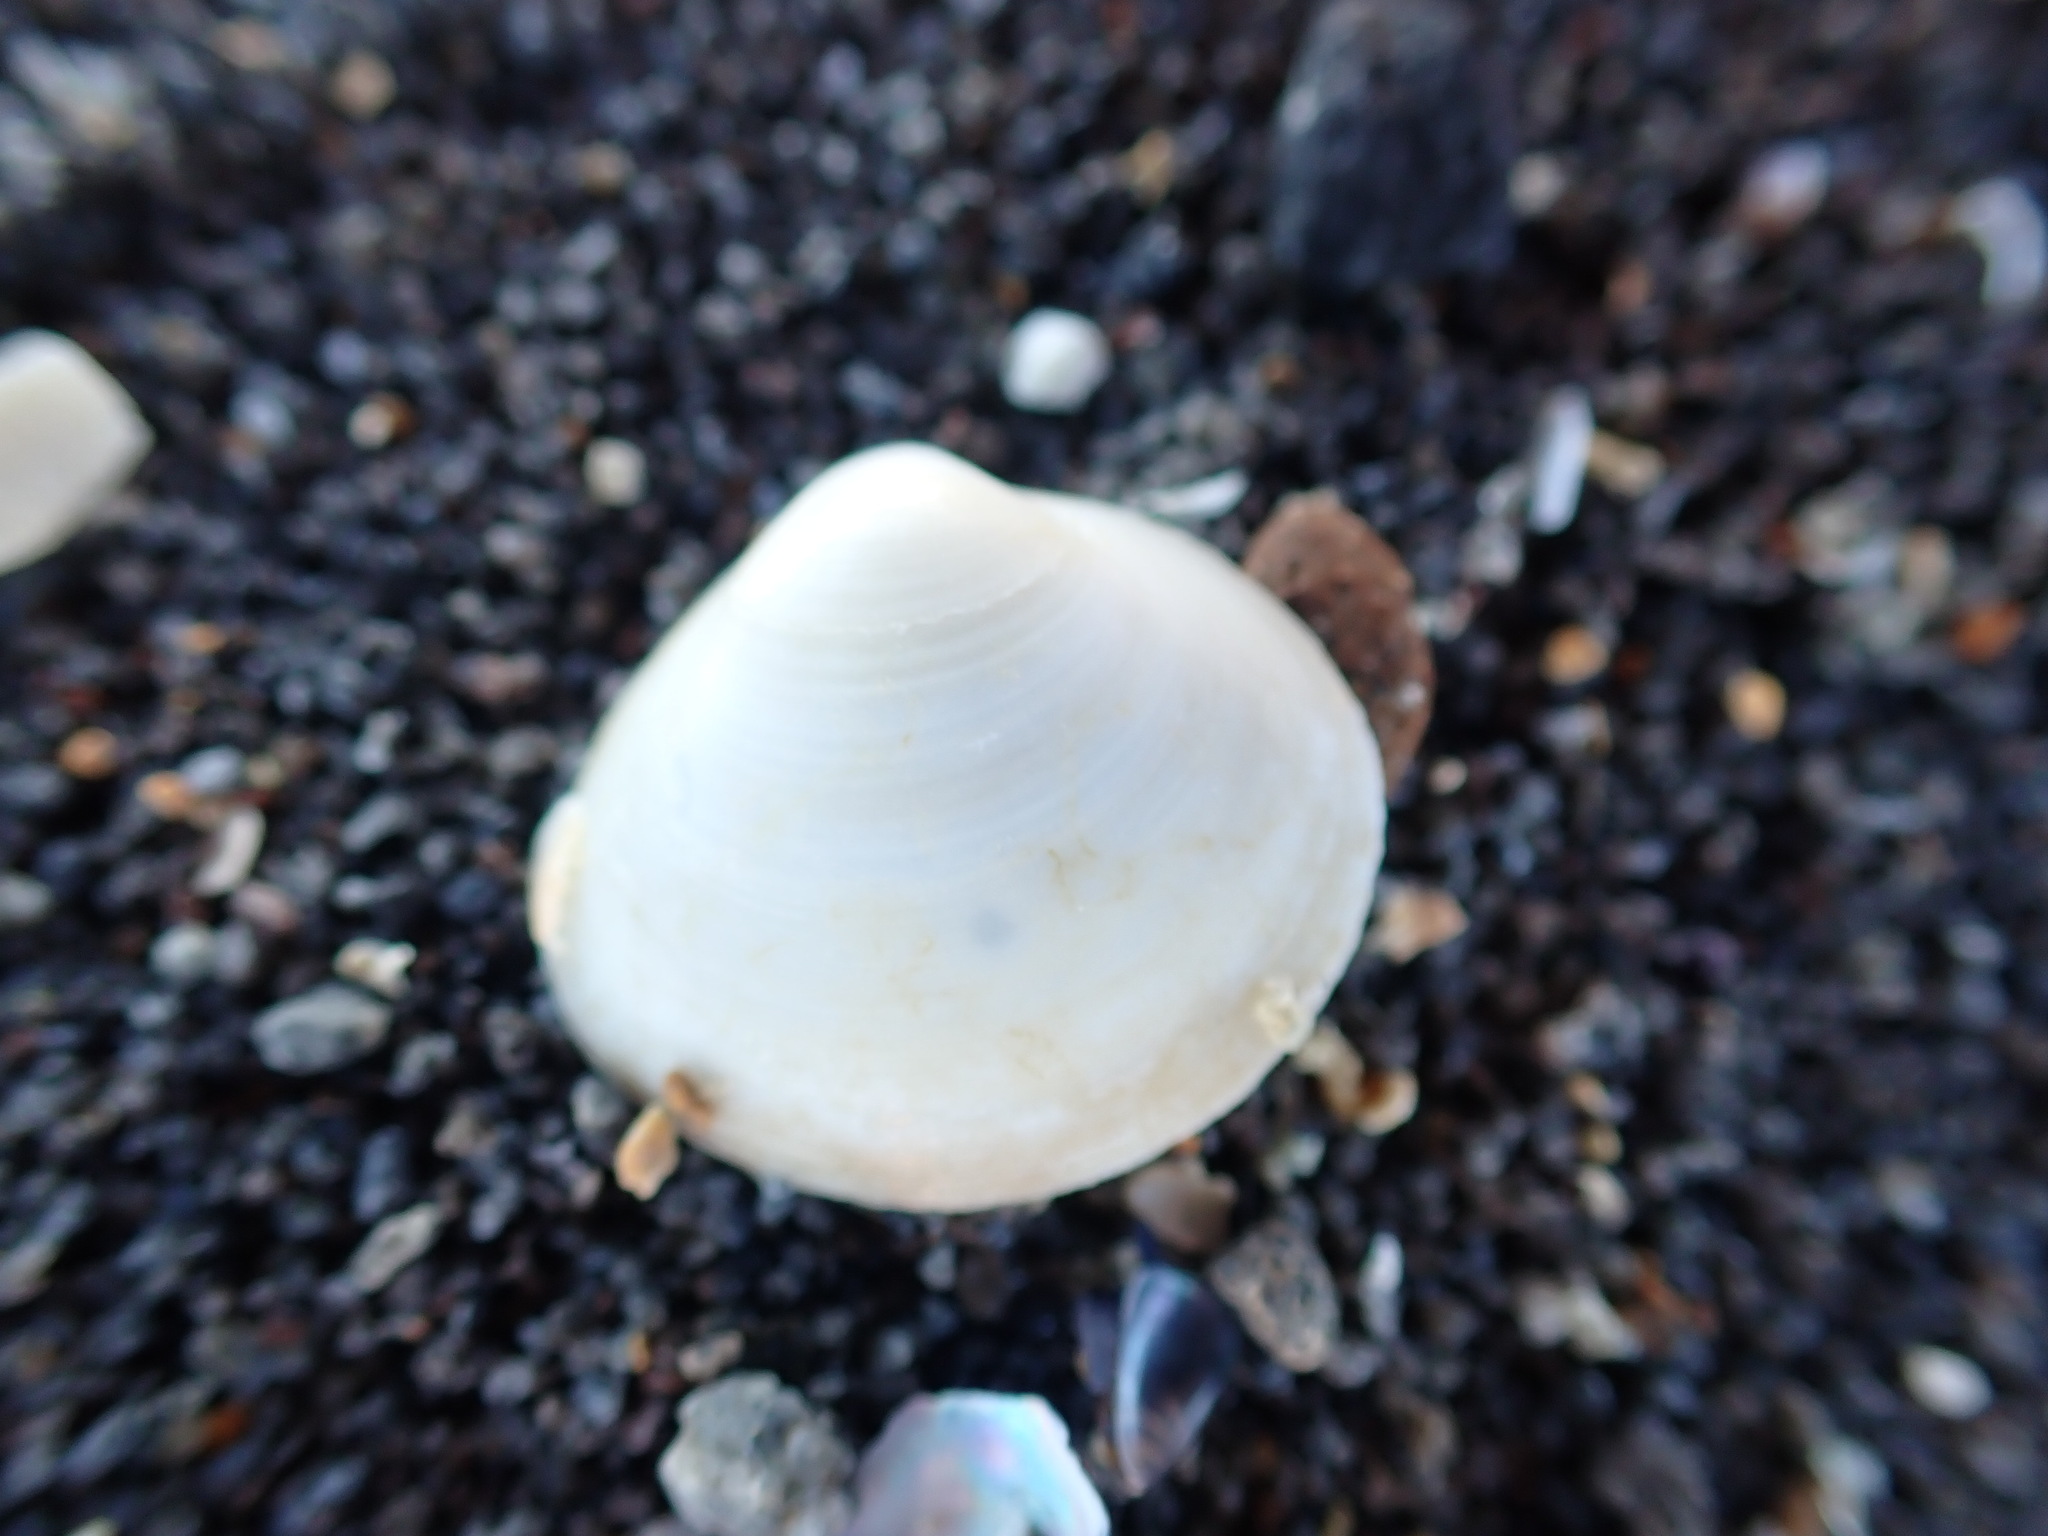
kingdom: Animalia
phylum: Mollusca
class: Bivalvia
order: Venerida
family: Mactridae
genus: Cyclomactra
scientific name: Cyclomactra ovata
